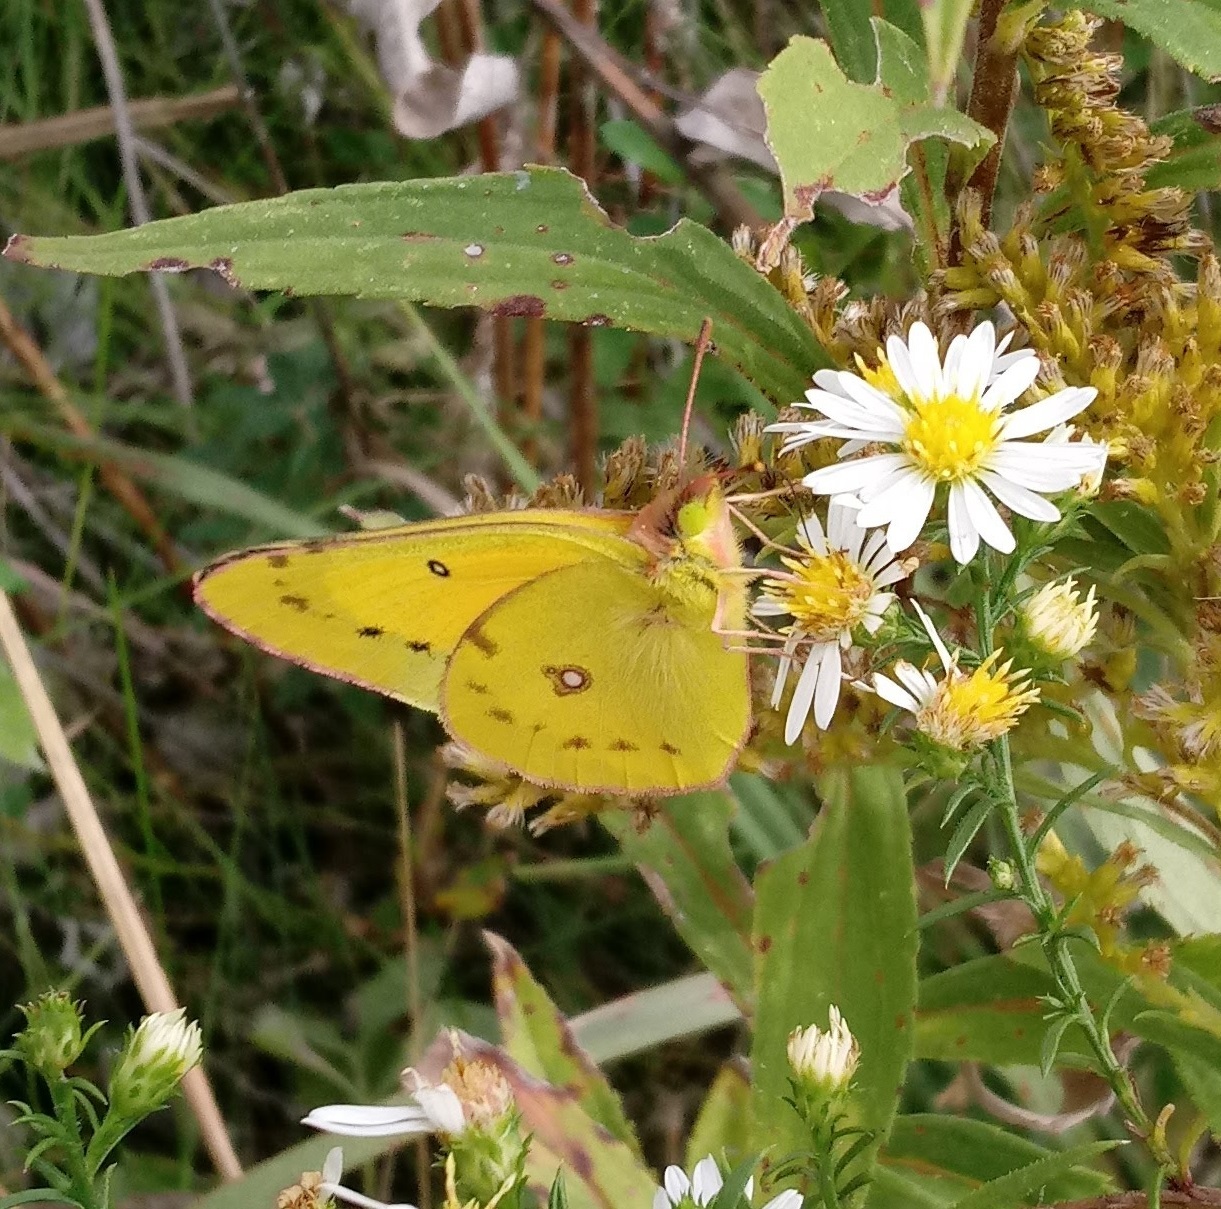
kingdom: Animalia
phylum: Arthropoda
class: Insecta
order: Lepidoptera
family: Pieridae
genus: Colias
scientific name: Colias eurytheme
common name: Alfalfa butterfly
